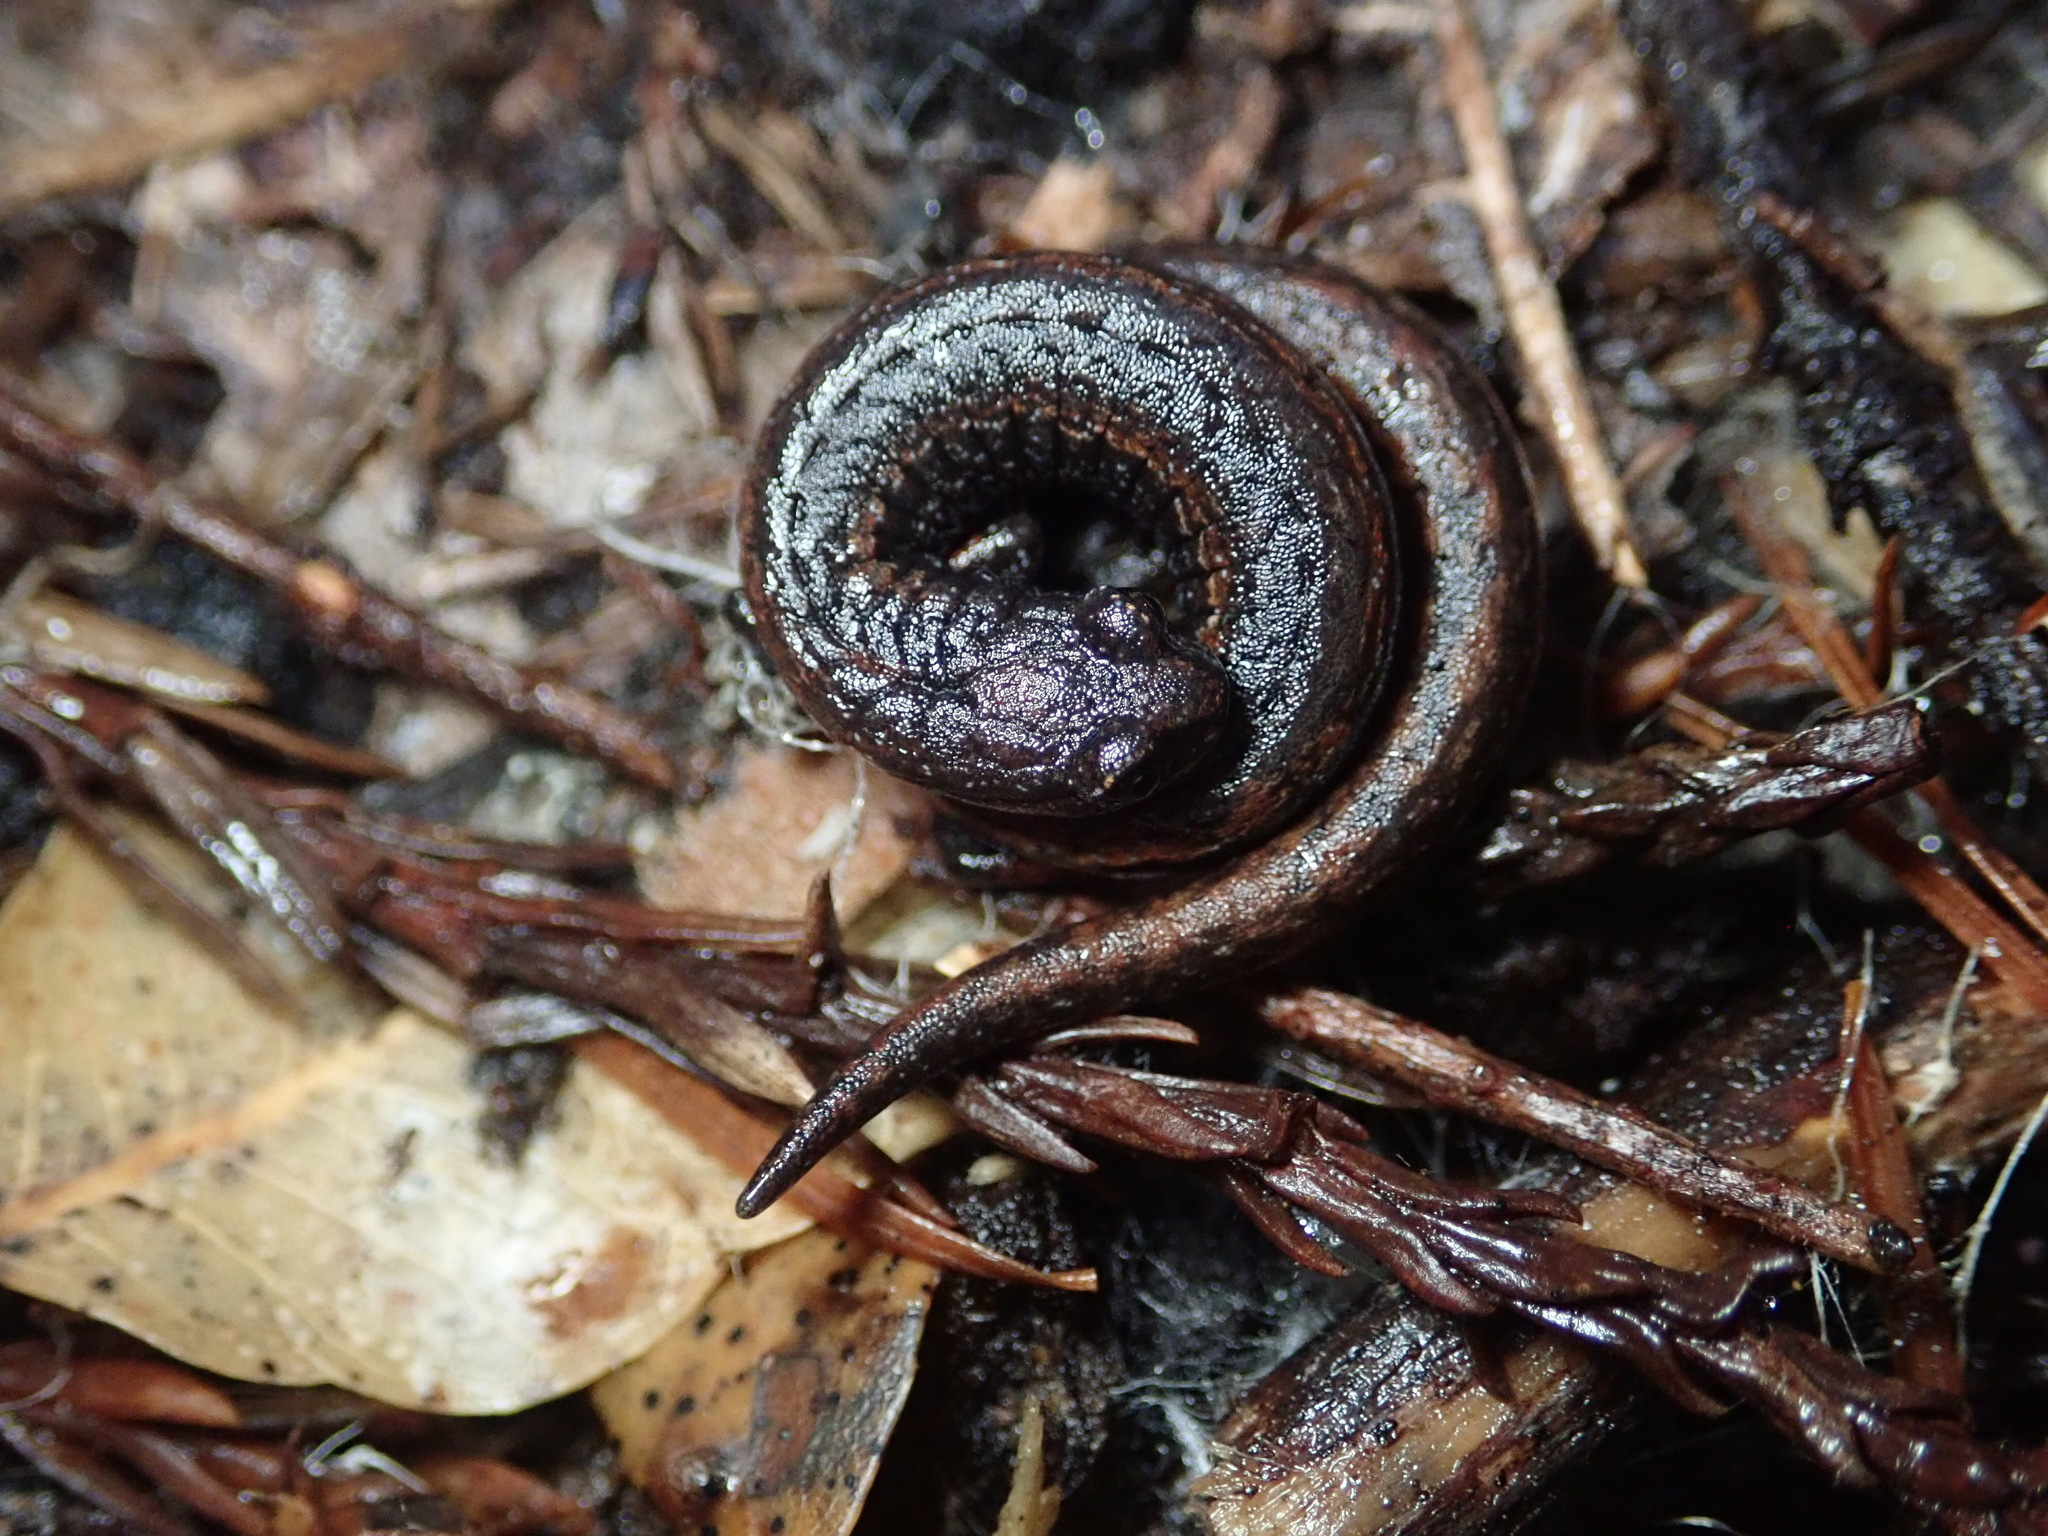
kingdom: Animalia
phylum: Chordata
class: Amphibia
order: Caudata
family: Plethodontidae
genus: Batrachoseps
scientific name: Batrachoseps attenuatus
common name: California slender salamander
